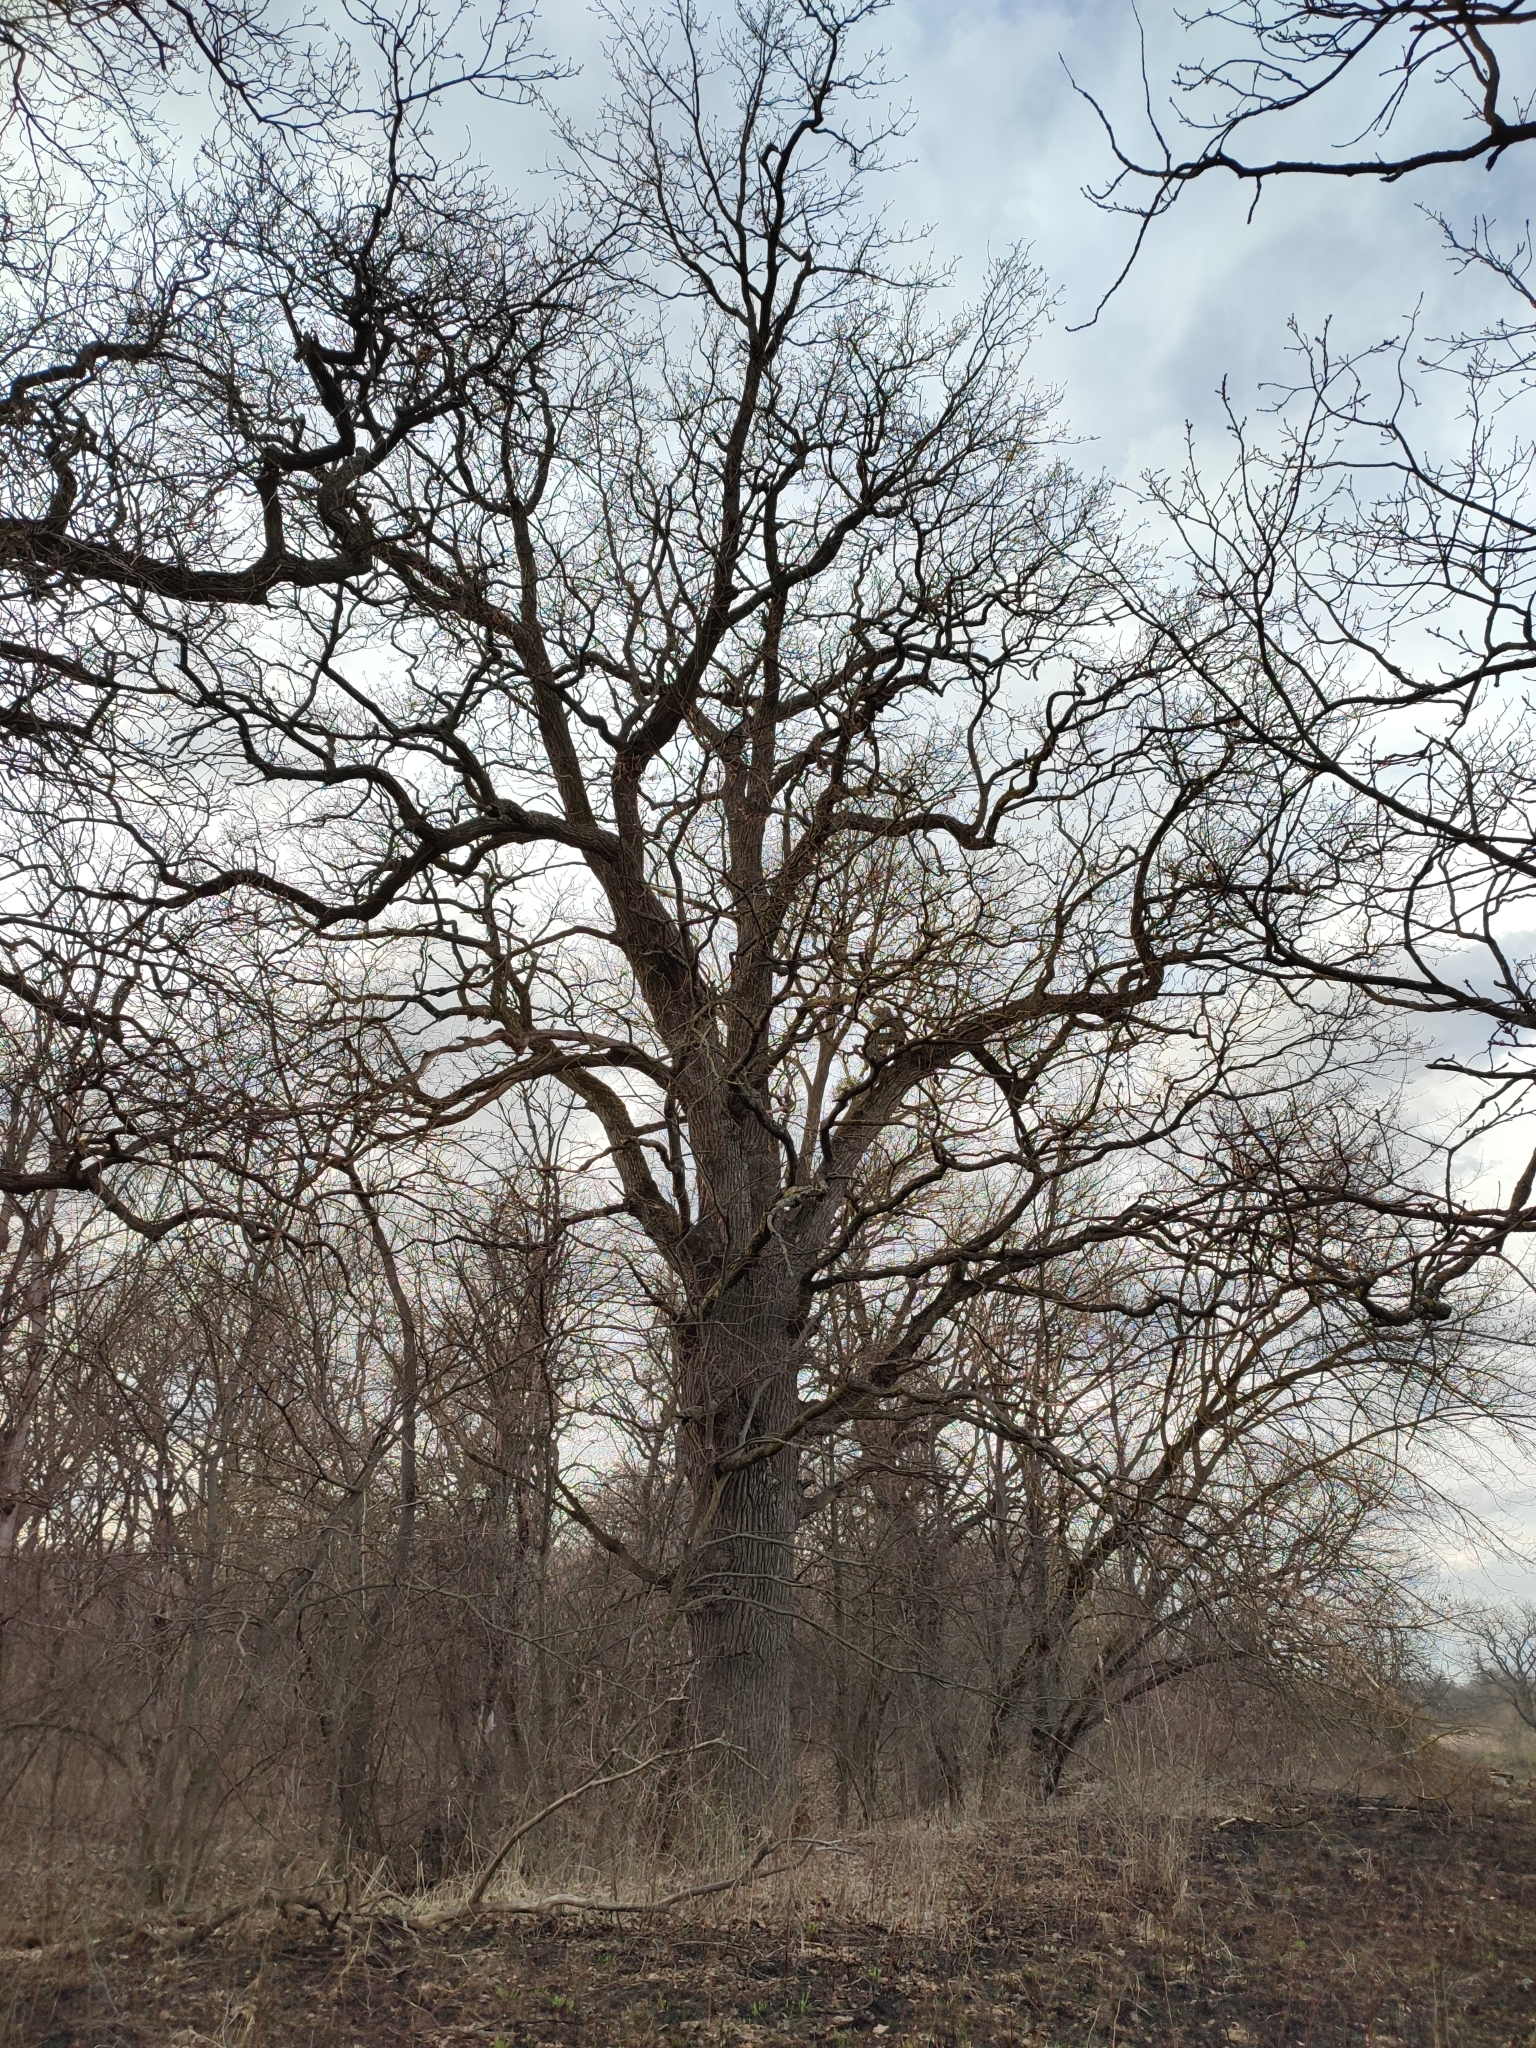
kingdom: Plantae
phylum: Tracheophyta
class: Magnoliopsida
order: Fagales
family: Fagaceae
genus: Quercus
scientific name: Quercus robur
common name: Pedunculate oak
